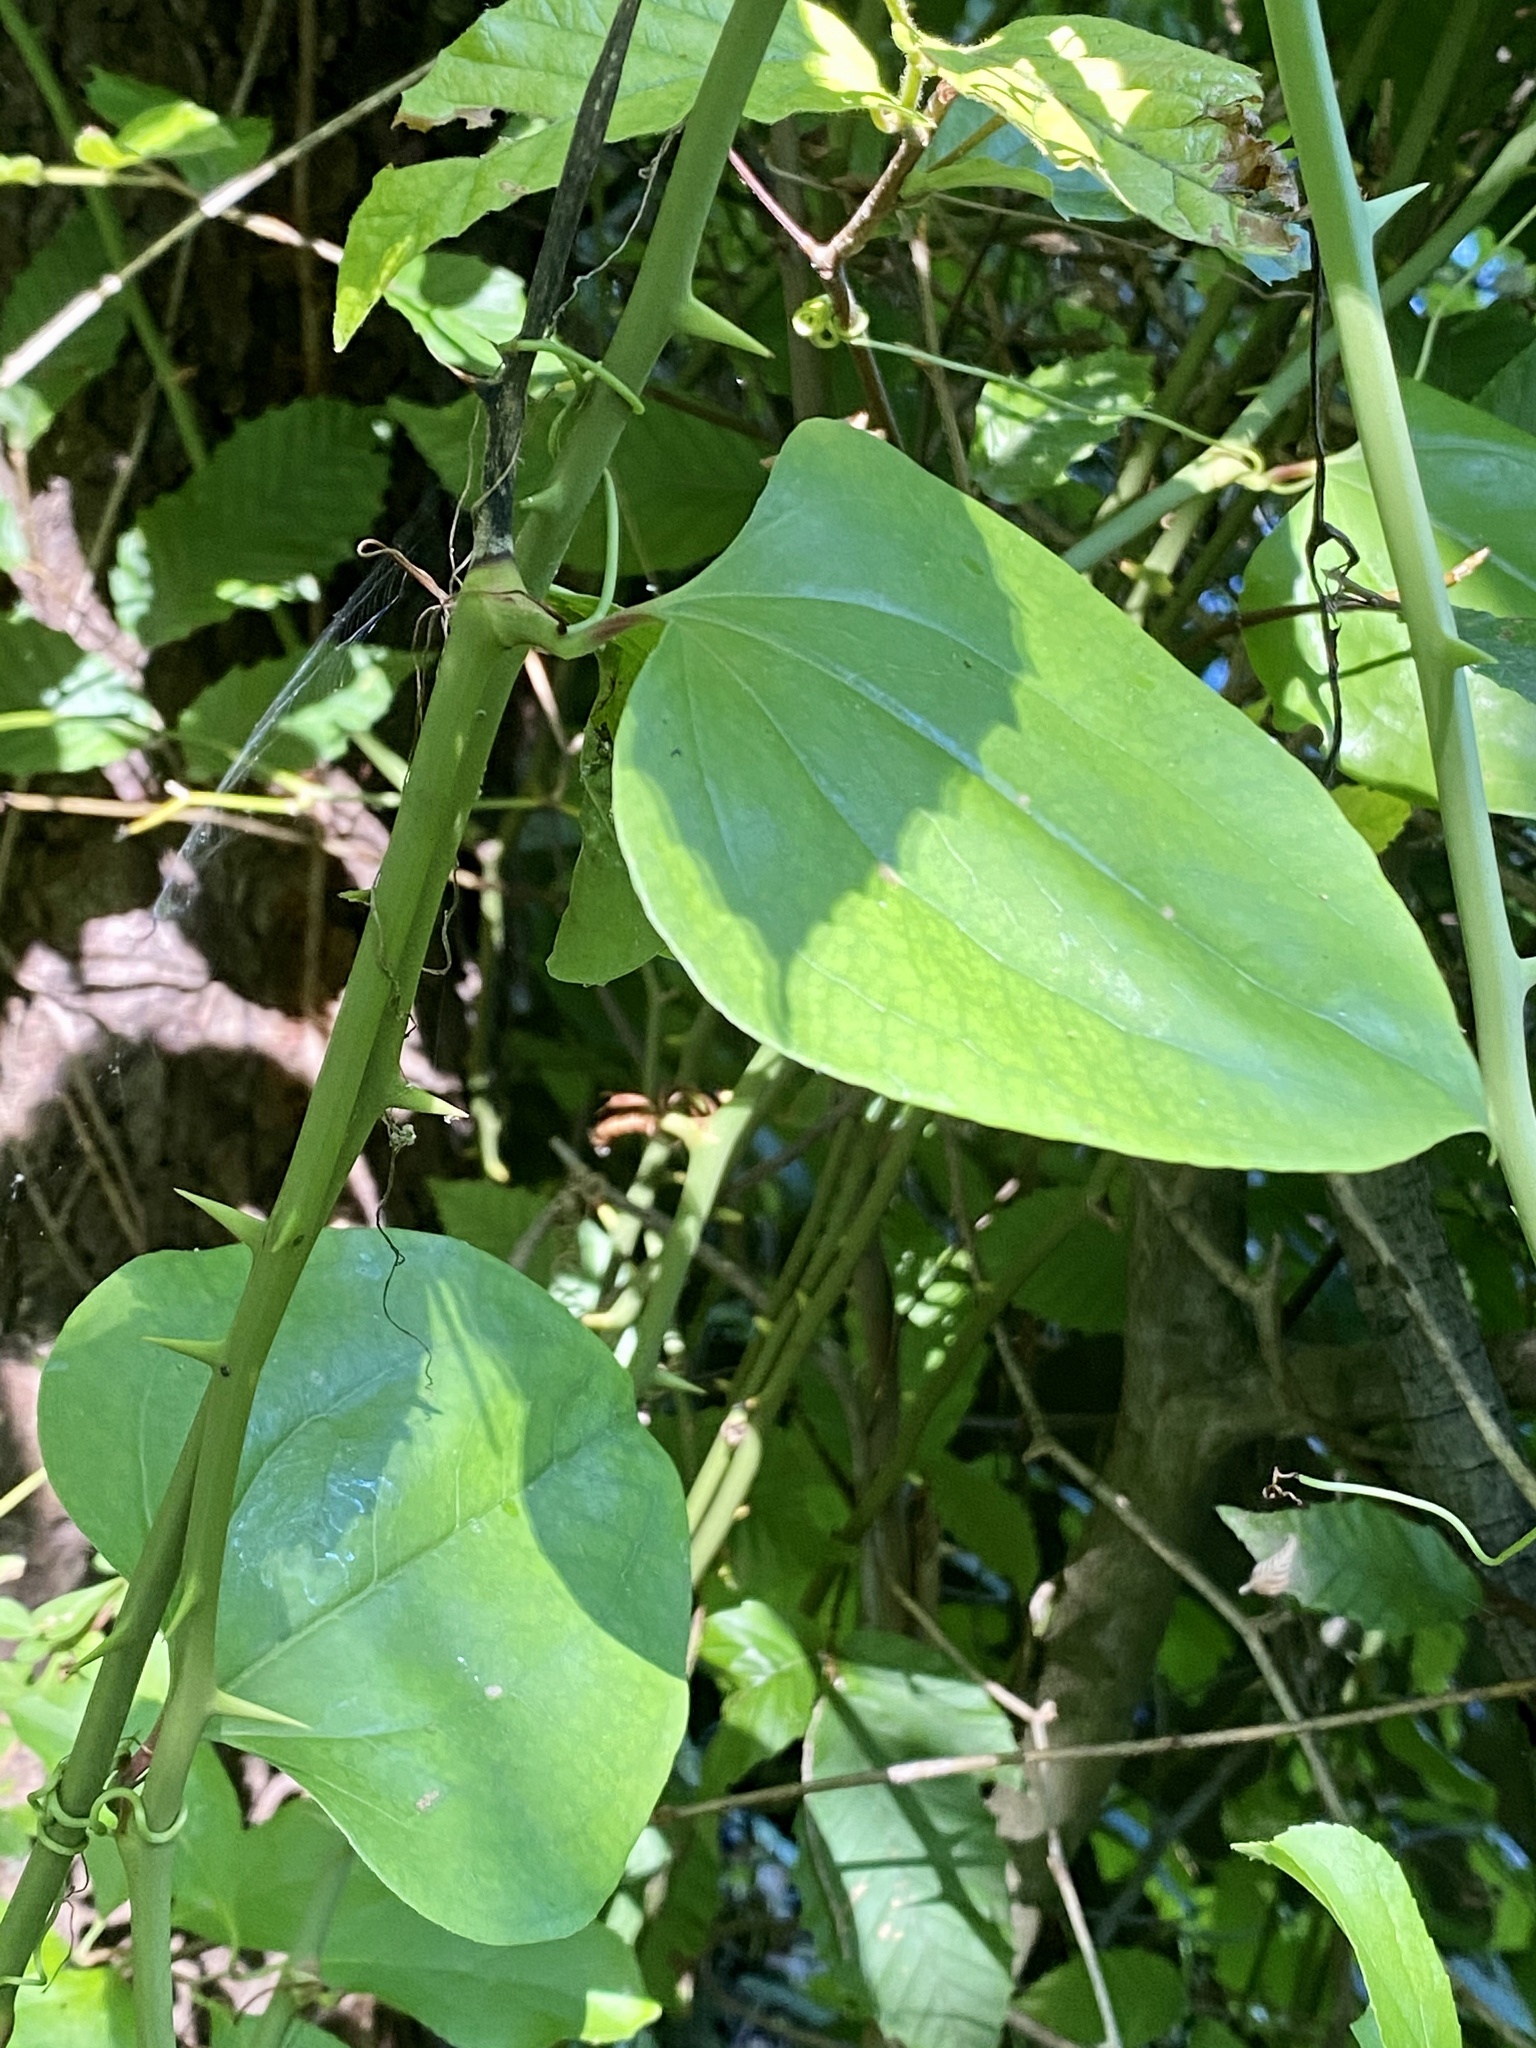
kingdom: Plantae
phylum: Tracheophyta
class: Liliopsida
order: Liliales
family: Smilacaceae
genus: Smilax
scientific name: Smilax rotundifolia
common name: Bullbriar
